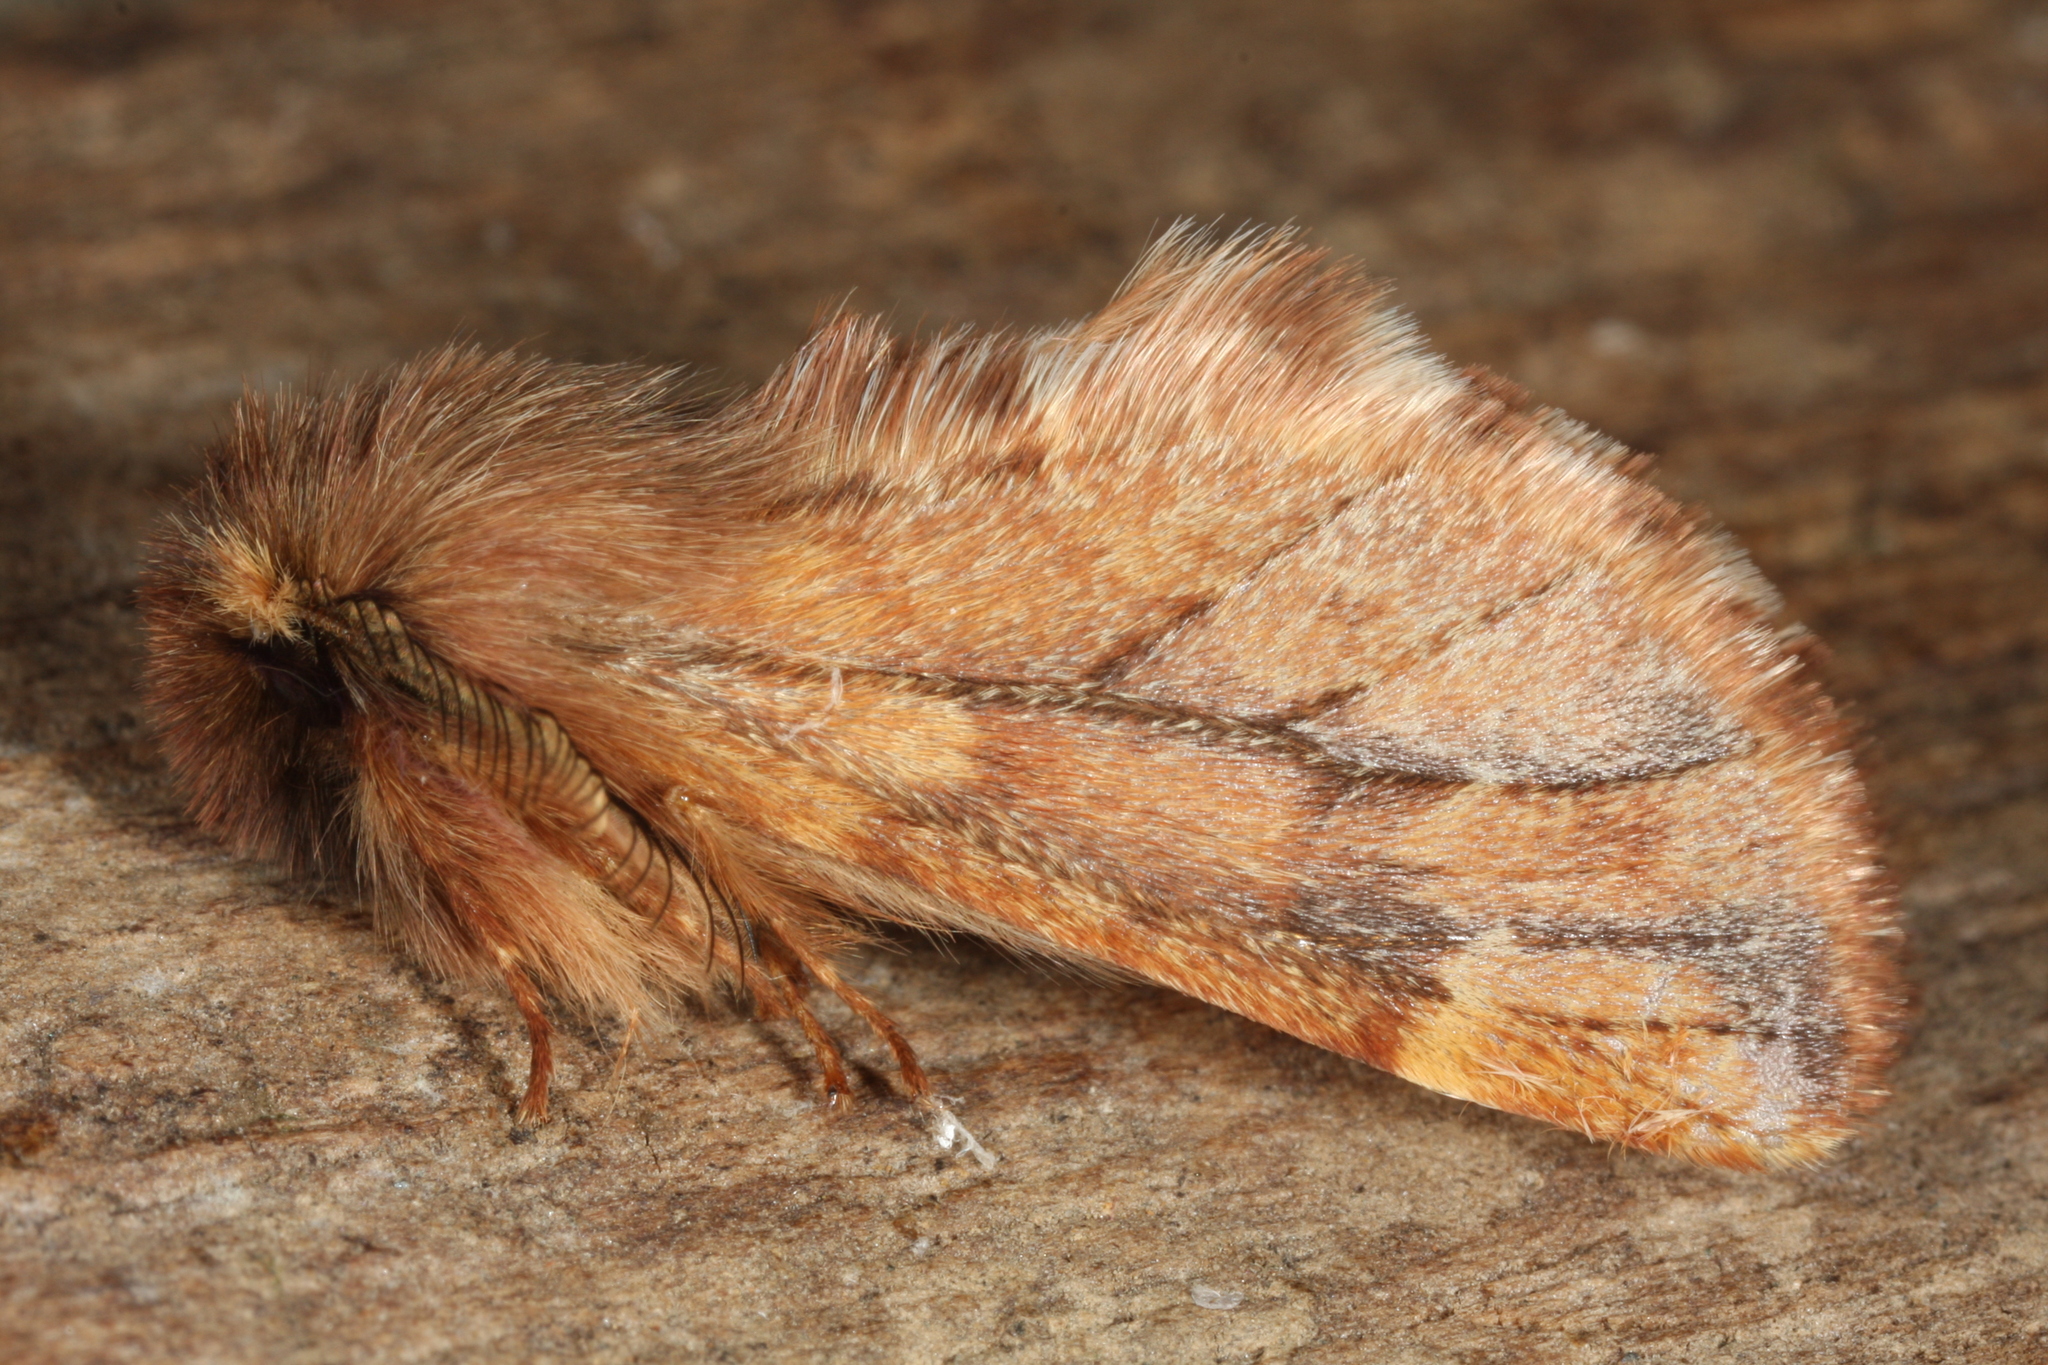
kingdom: Animalia
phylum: Arthropoda
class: Insecta
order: Lepidoptera
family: Notodontidae
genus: Ptilophora
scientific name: Ptilophora plumigera
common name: Plumed prominent
